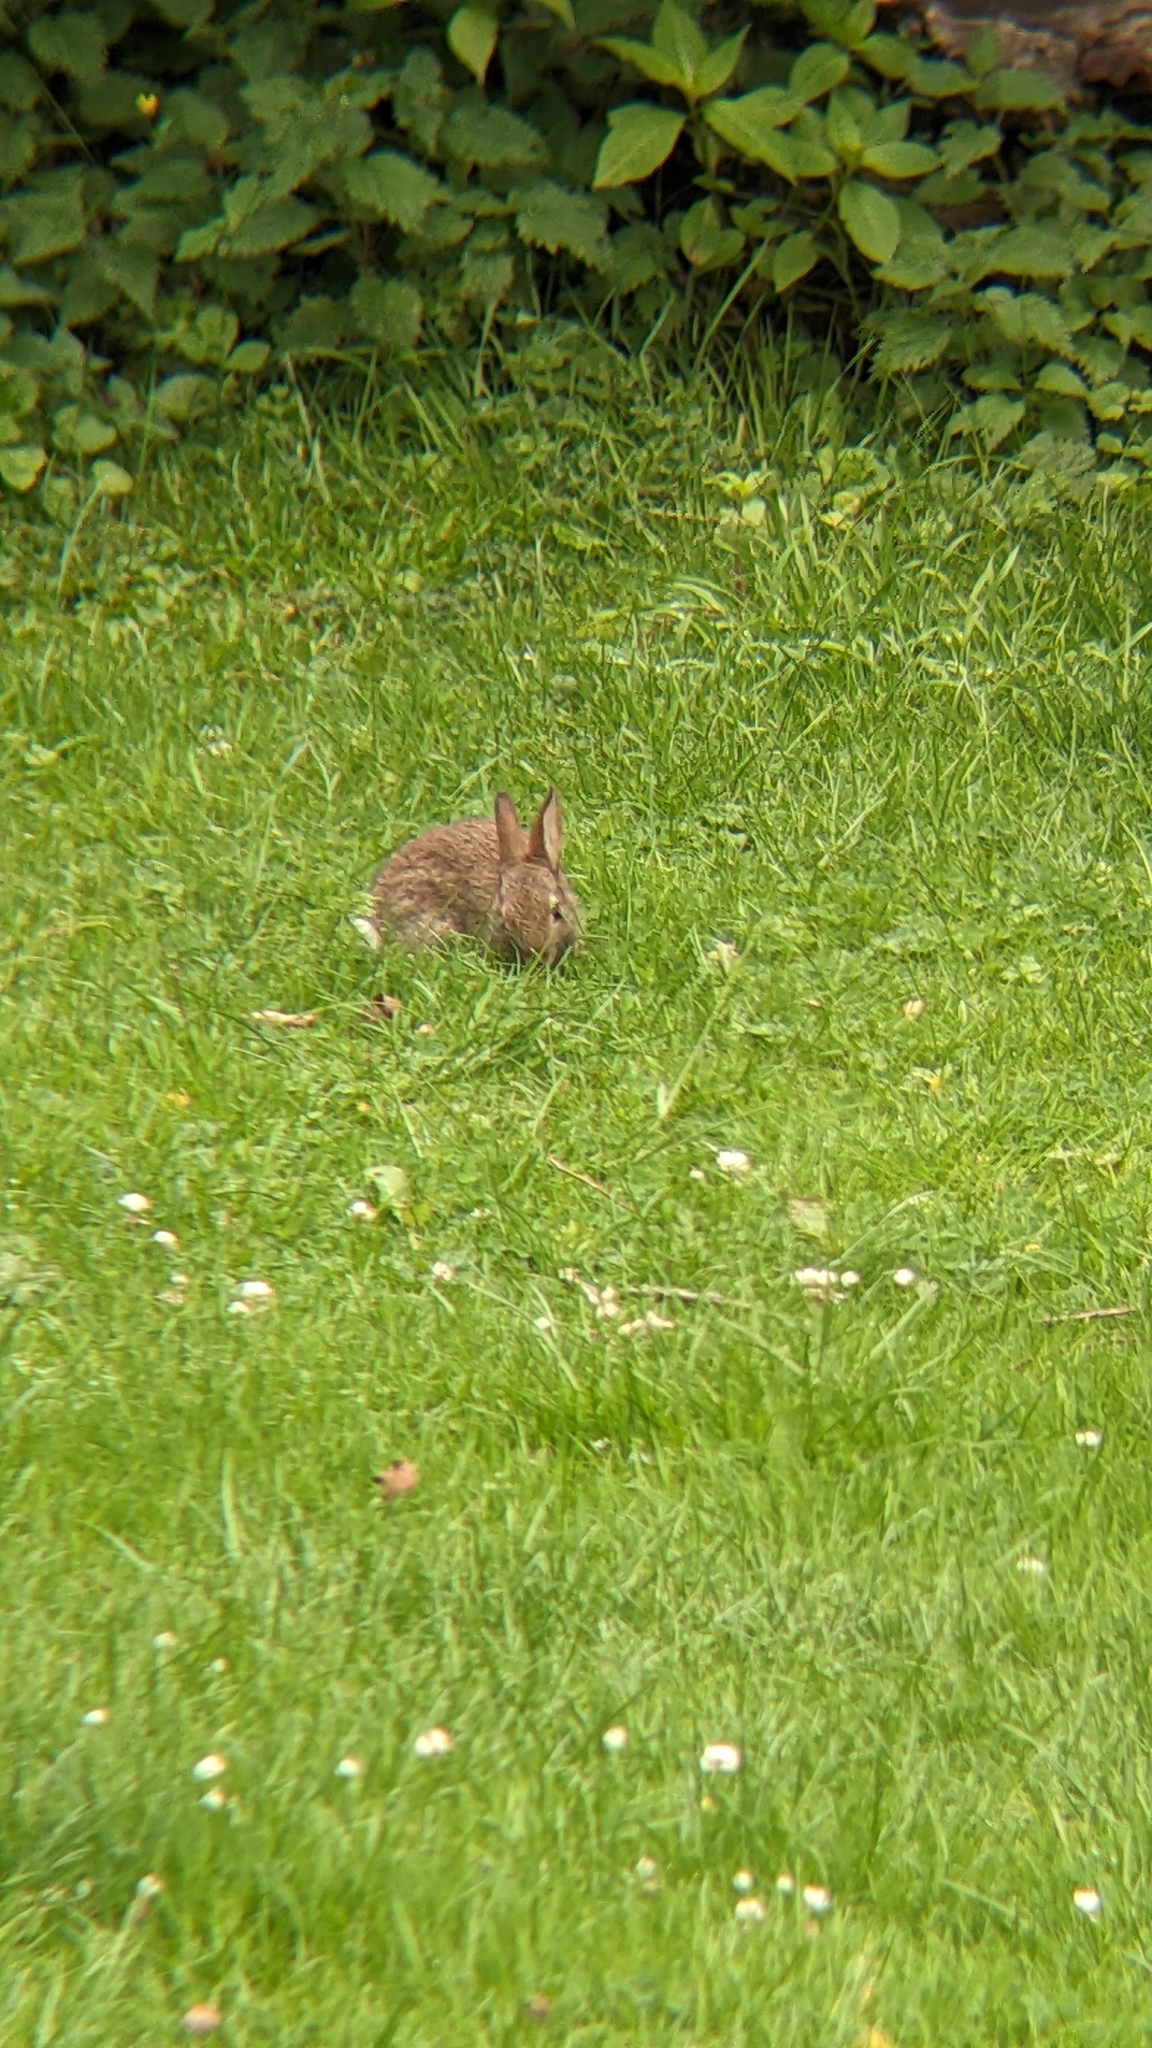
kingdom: Animalia
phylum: Chordata
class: Mammalia
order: Lagomorpha
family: Leporidae
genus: Oryctolagus
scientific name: Oryctolagus cuniculus
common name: European rabbit
